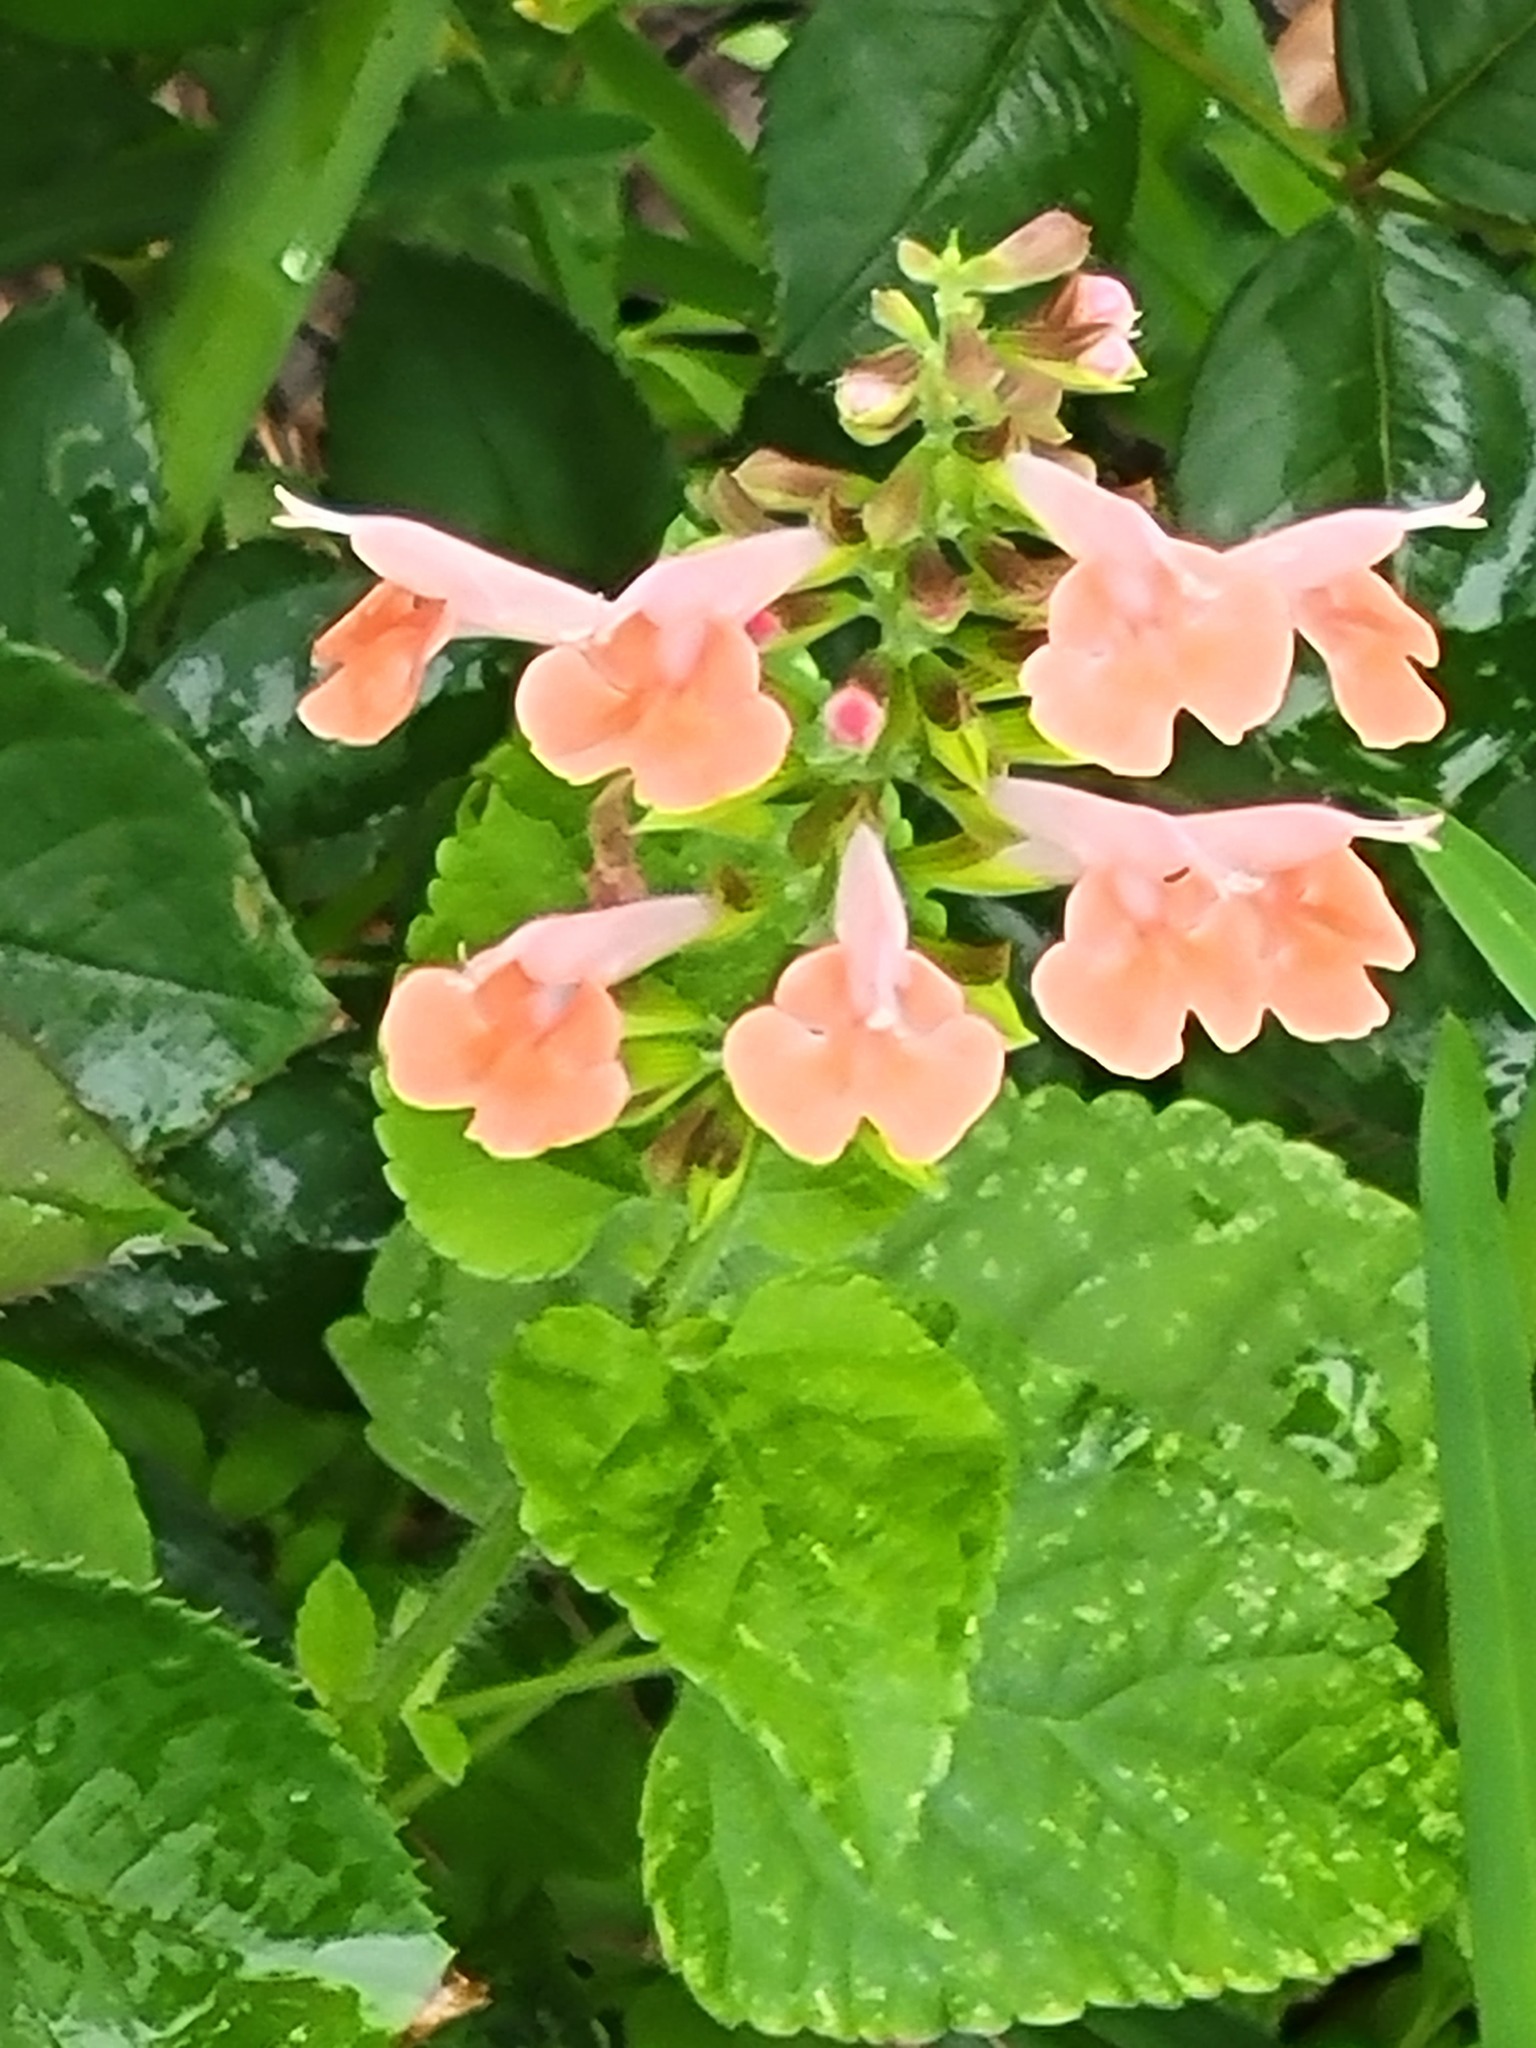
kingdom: Plantae
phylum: Tracheophyta
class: Magnoliopsida
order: Lamiales
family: Lamiaceae
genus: Salvia
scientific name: Salvia coccinea
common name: Blood sage
